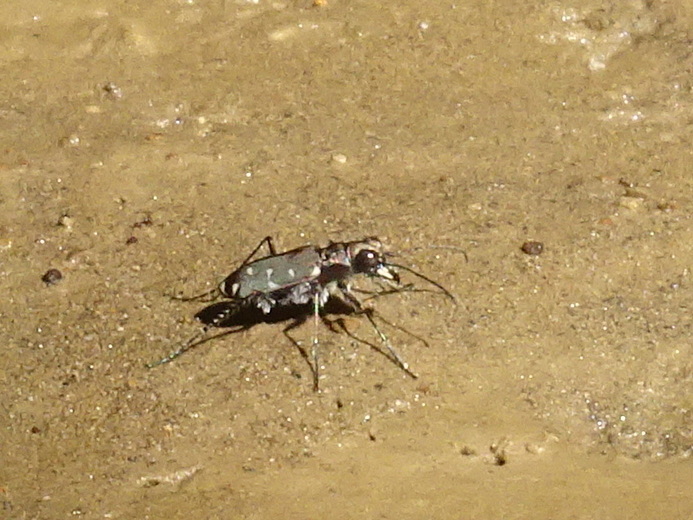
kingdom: Animalia
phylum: Arthropoda
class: Insecta
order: Coleoptera
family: Carabidae
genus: Cicindela
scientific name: Cicindela duodecimguttata
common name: Twelve-spotted tiger beetle
